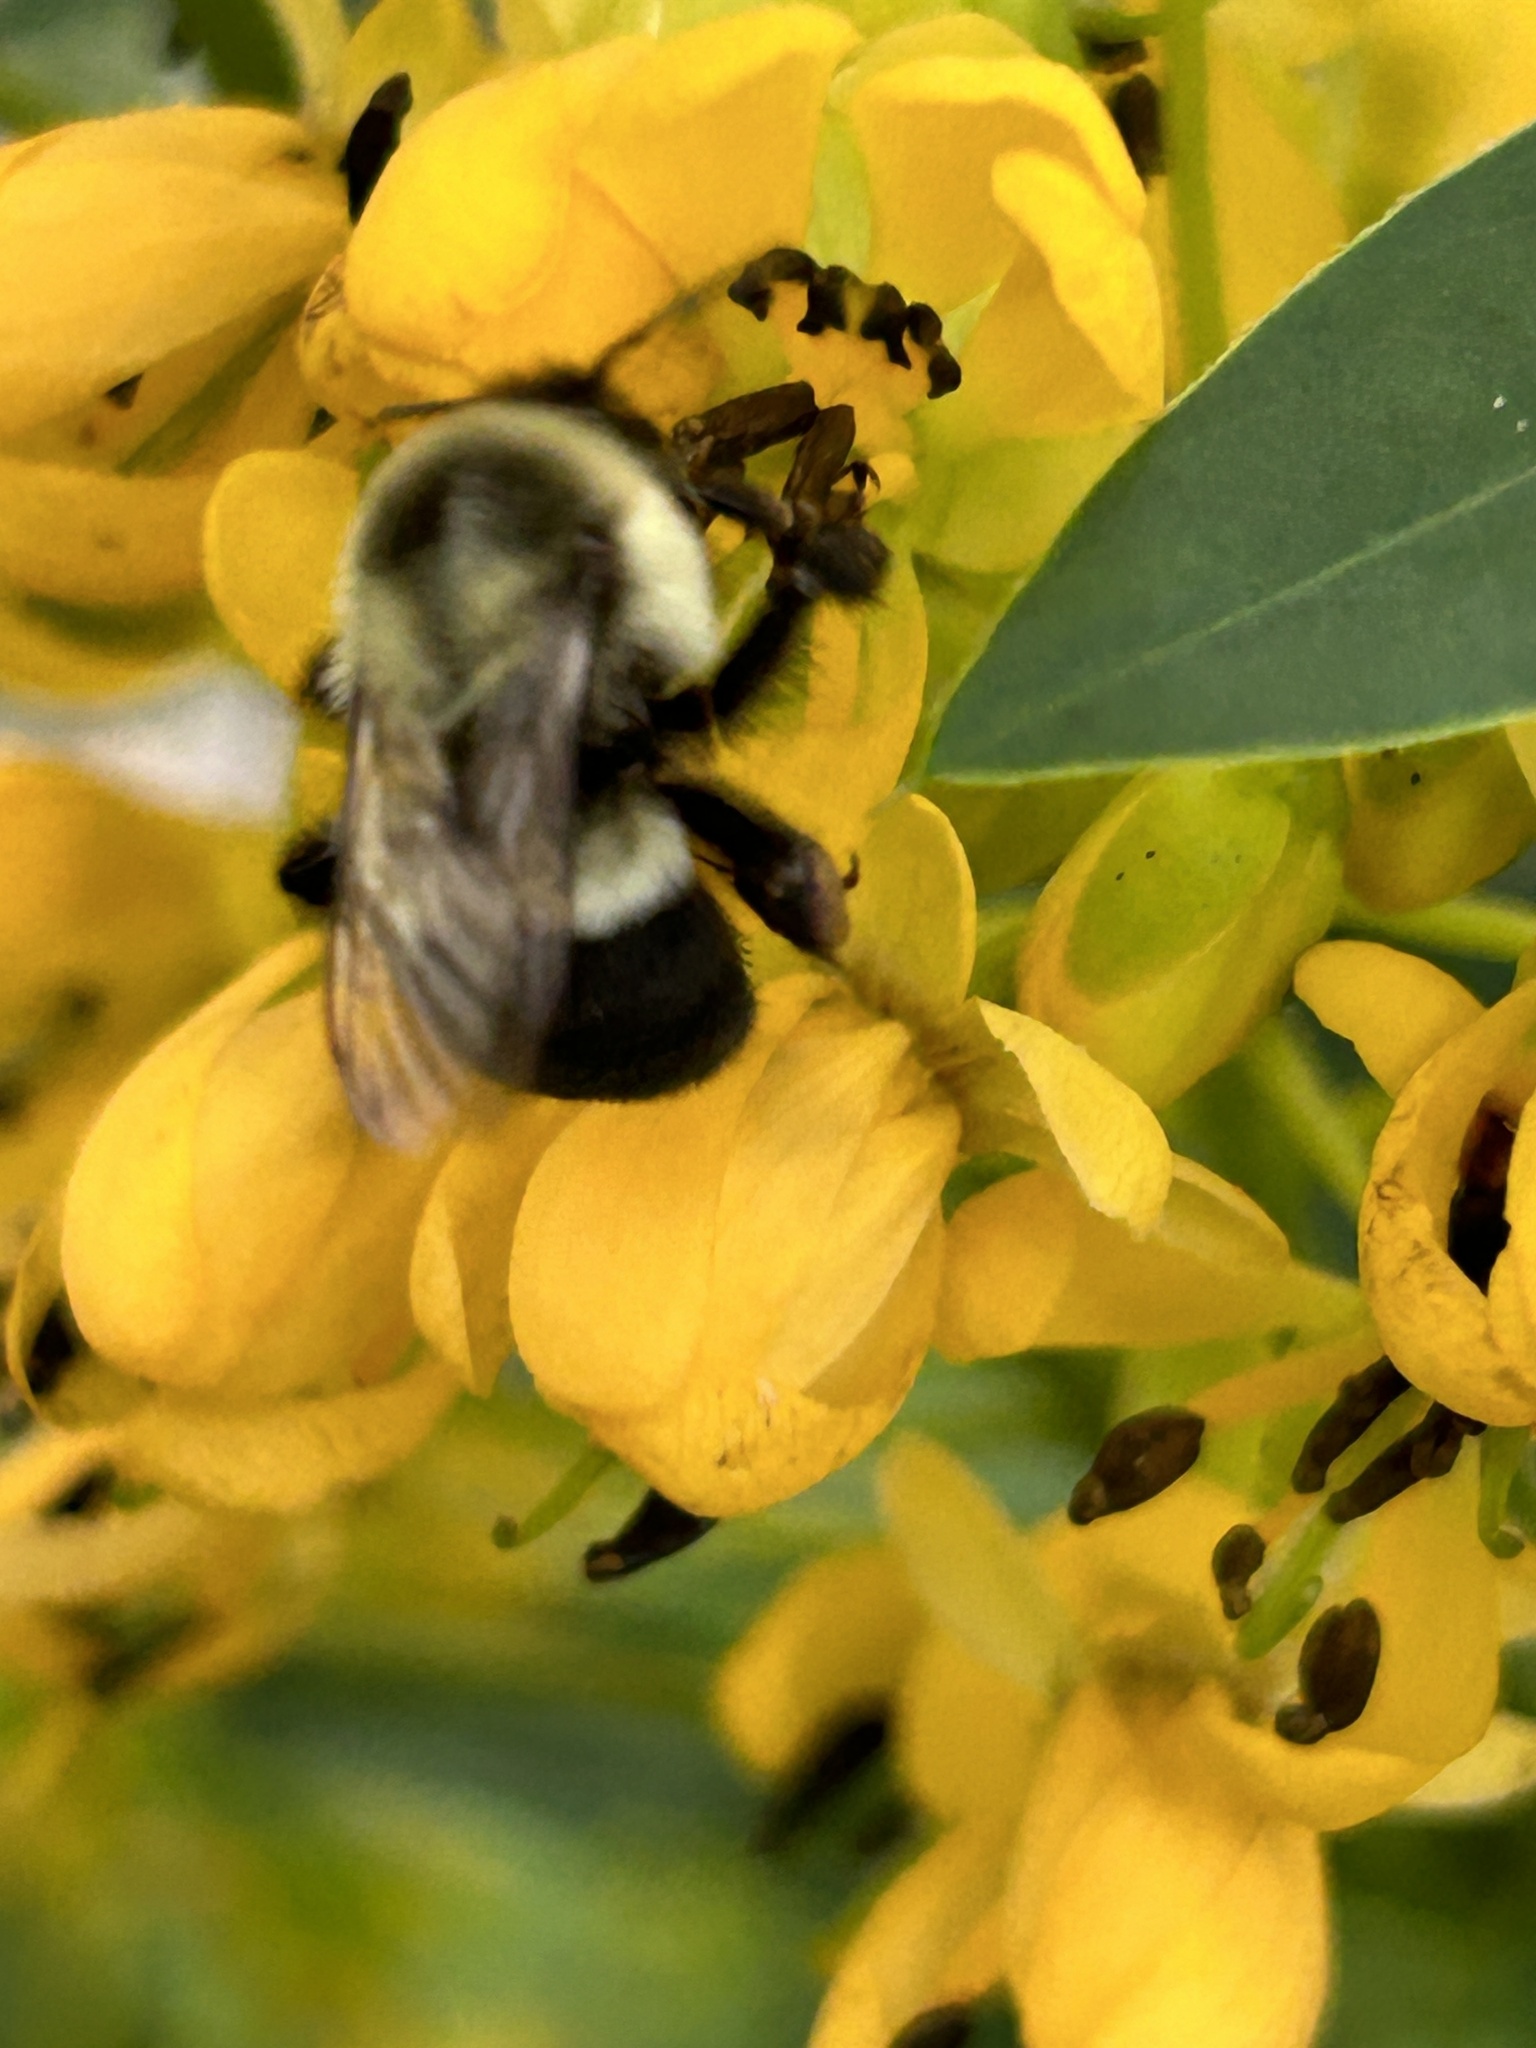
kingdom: Animalia
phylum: Arthropoda
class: Insecta
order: Hymenoptera
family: Apidae
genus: Bombus
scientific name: Bombus impatiens
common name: Common eastern bumble bee
